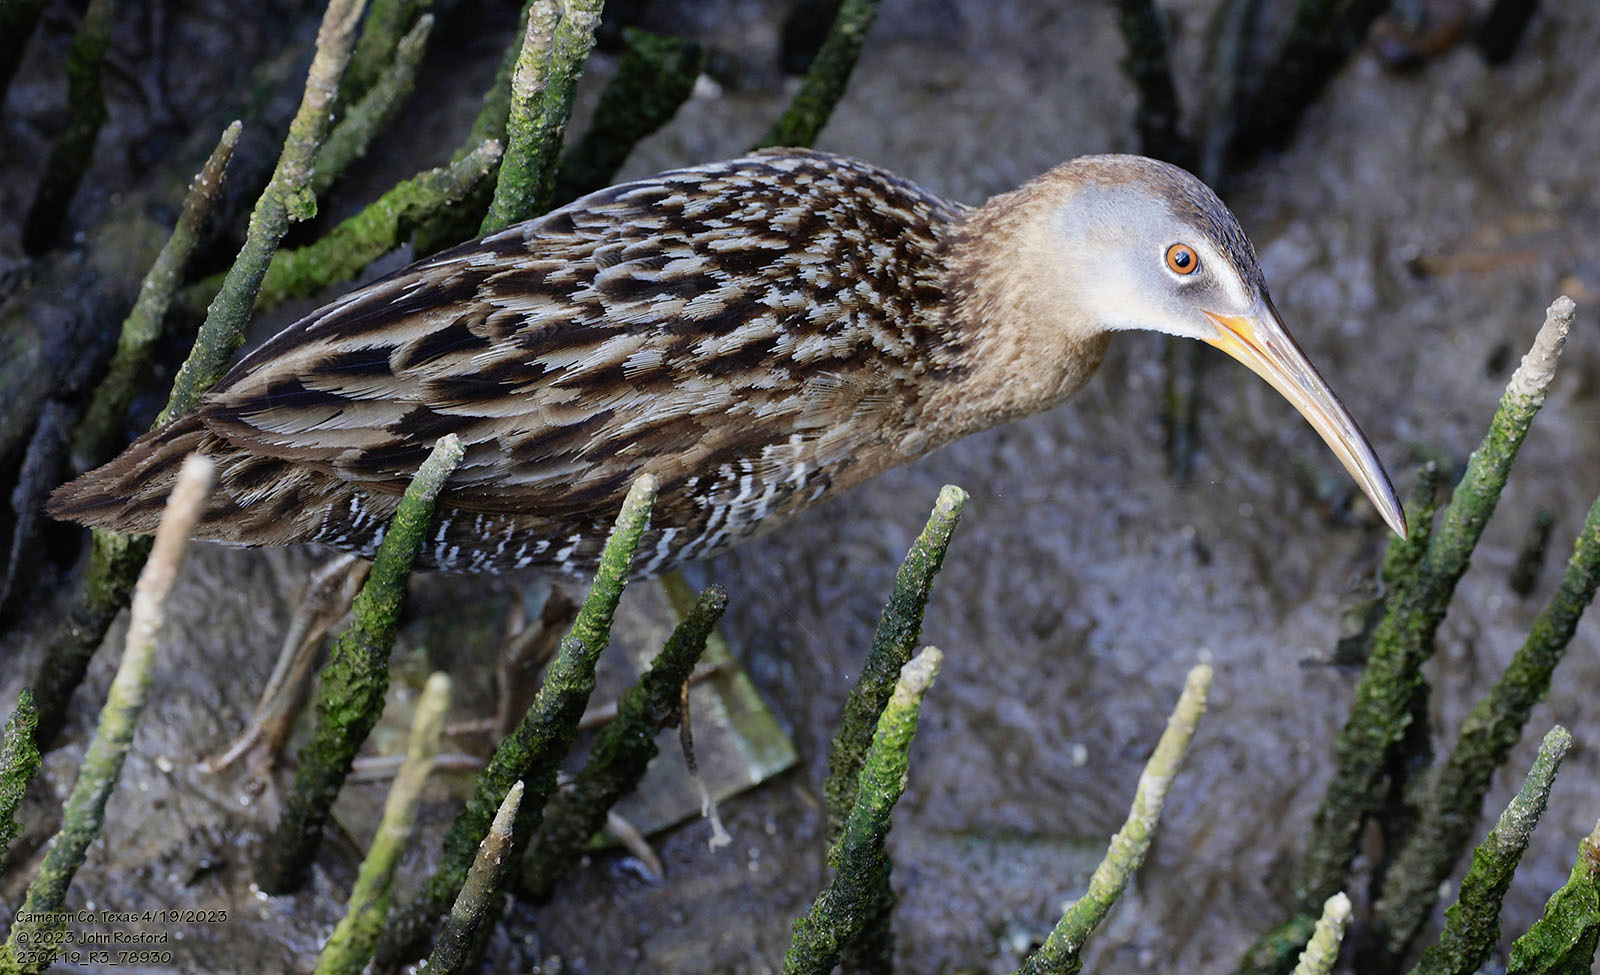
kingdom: Animalia
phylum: Chordata
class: Aves
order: Gruiformes
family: Rallidae
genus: Rallus
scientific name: Rallus crepitans
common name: Clapper rail
